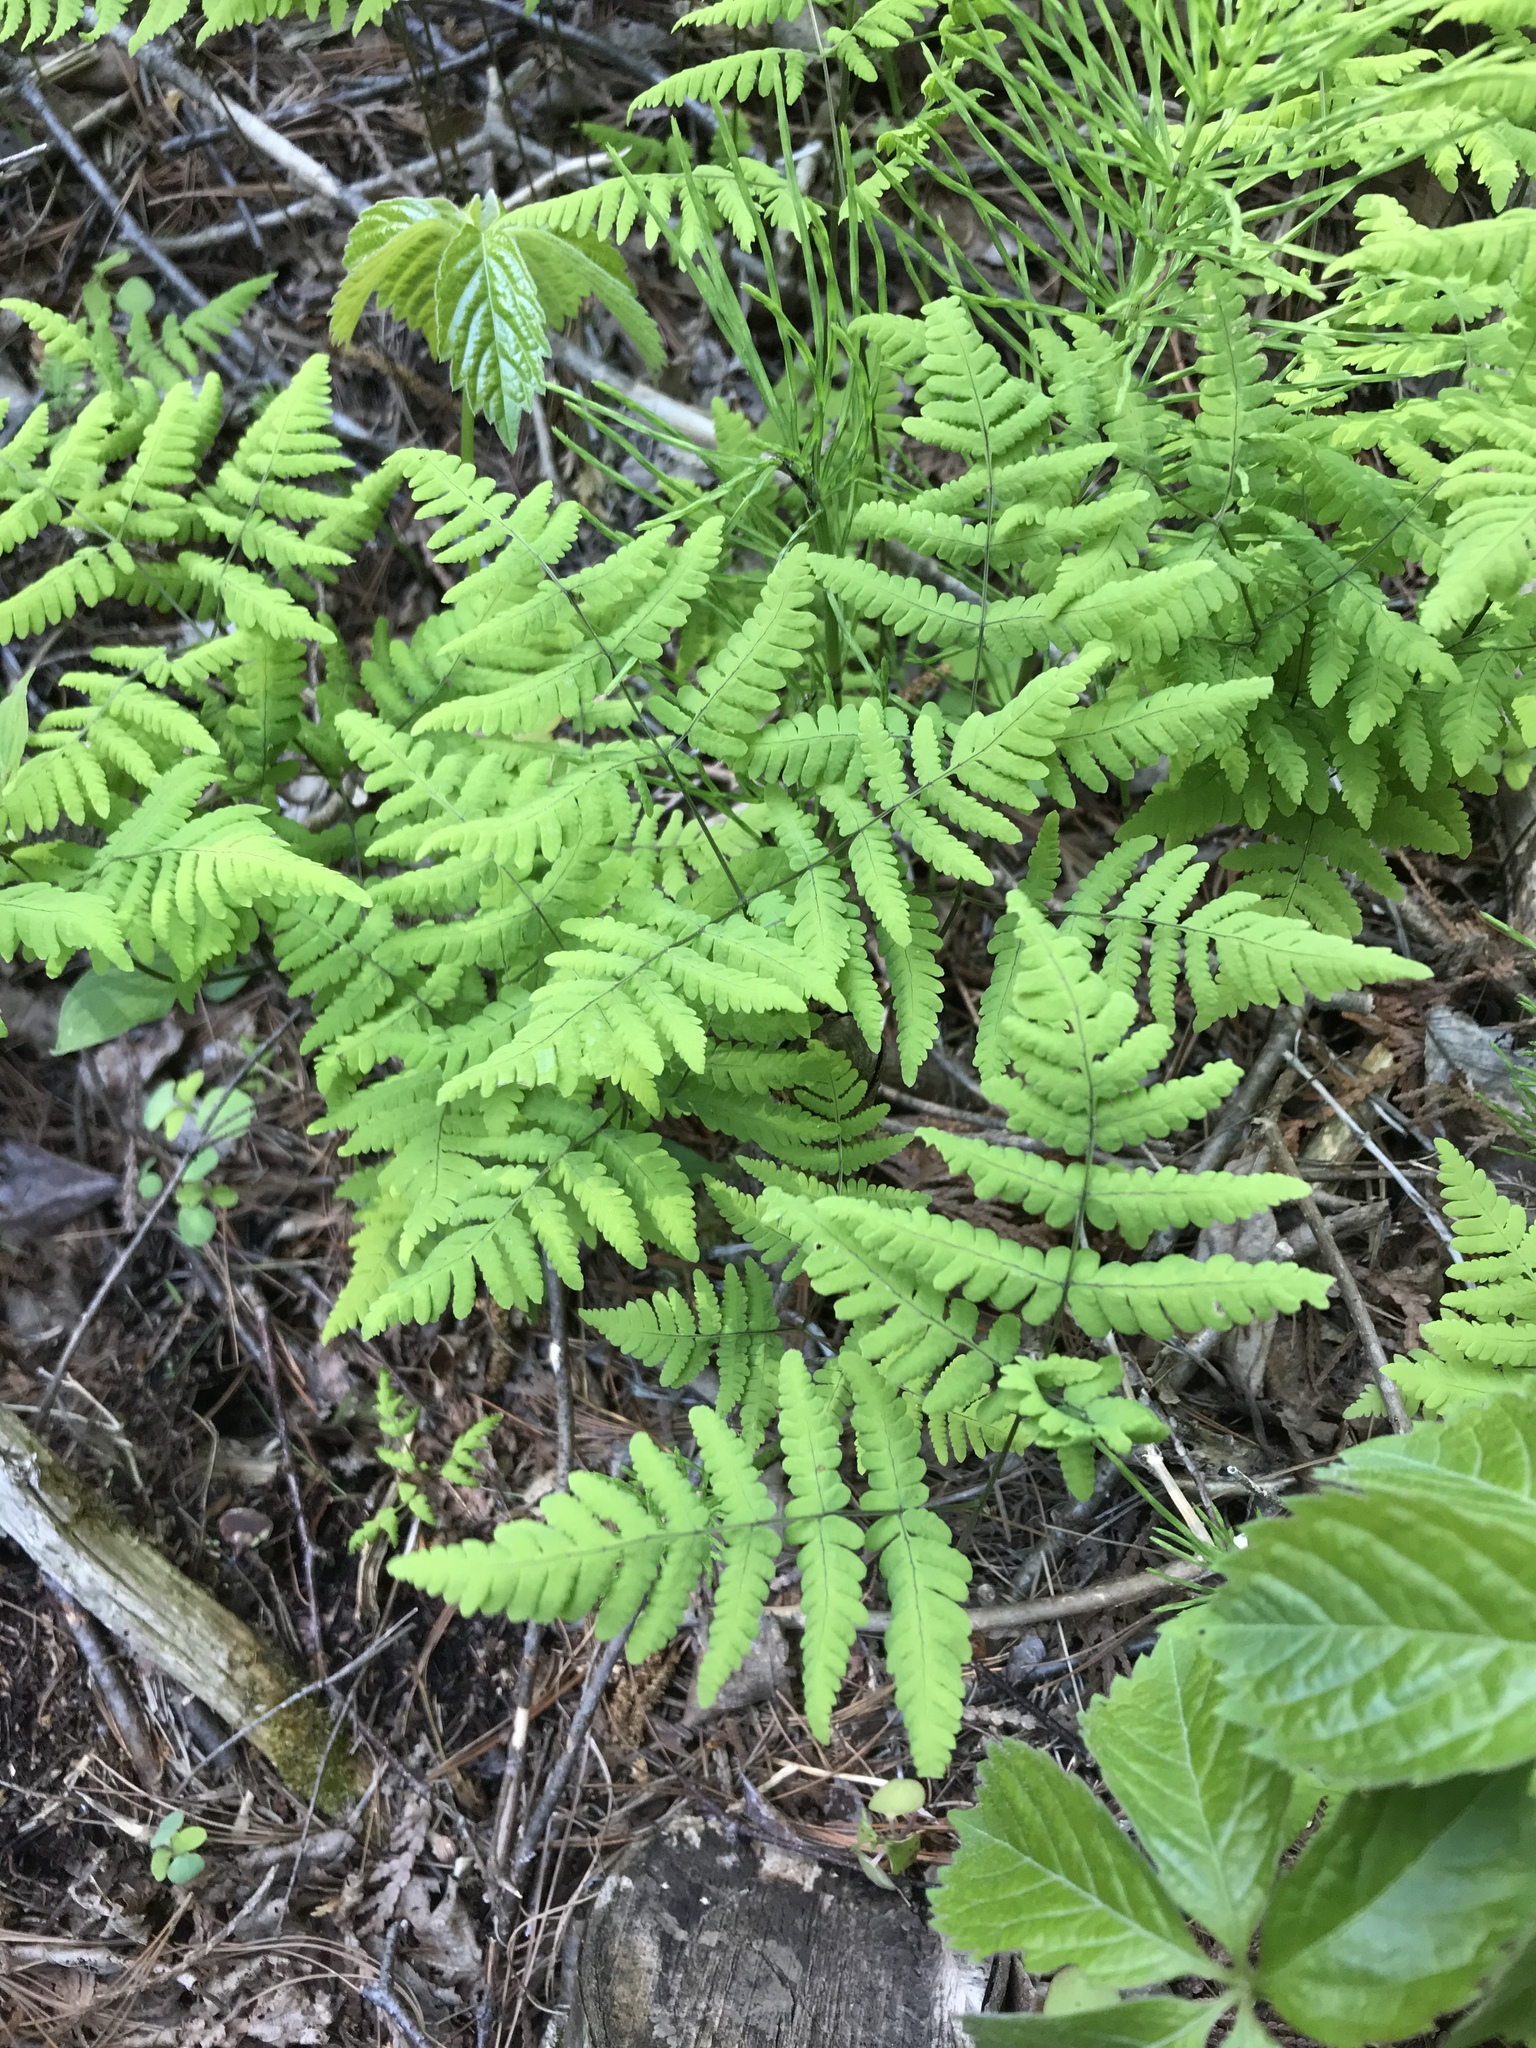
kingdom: Plantae
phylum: Tracheophyta
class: Polypodiopsida
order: Polypodiales
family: Cystopteridaceae
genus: Gymnocarpium
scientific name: Gymnocarpium dryopteris
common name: Oak fern
